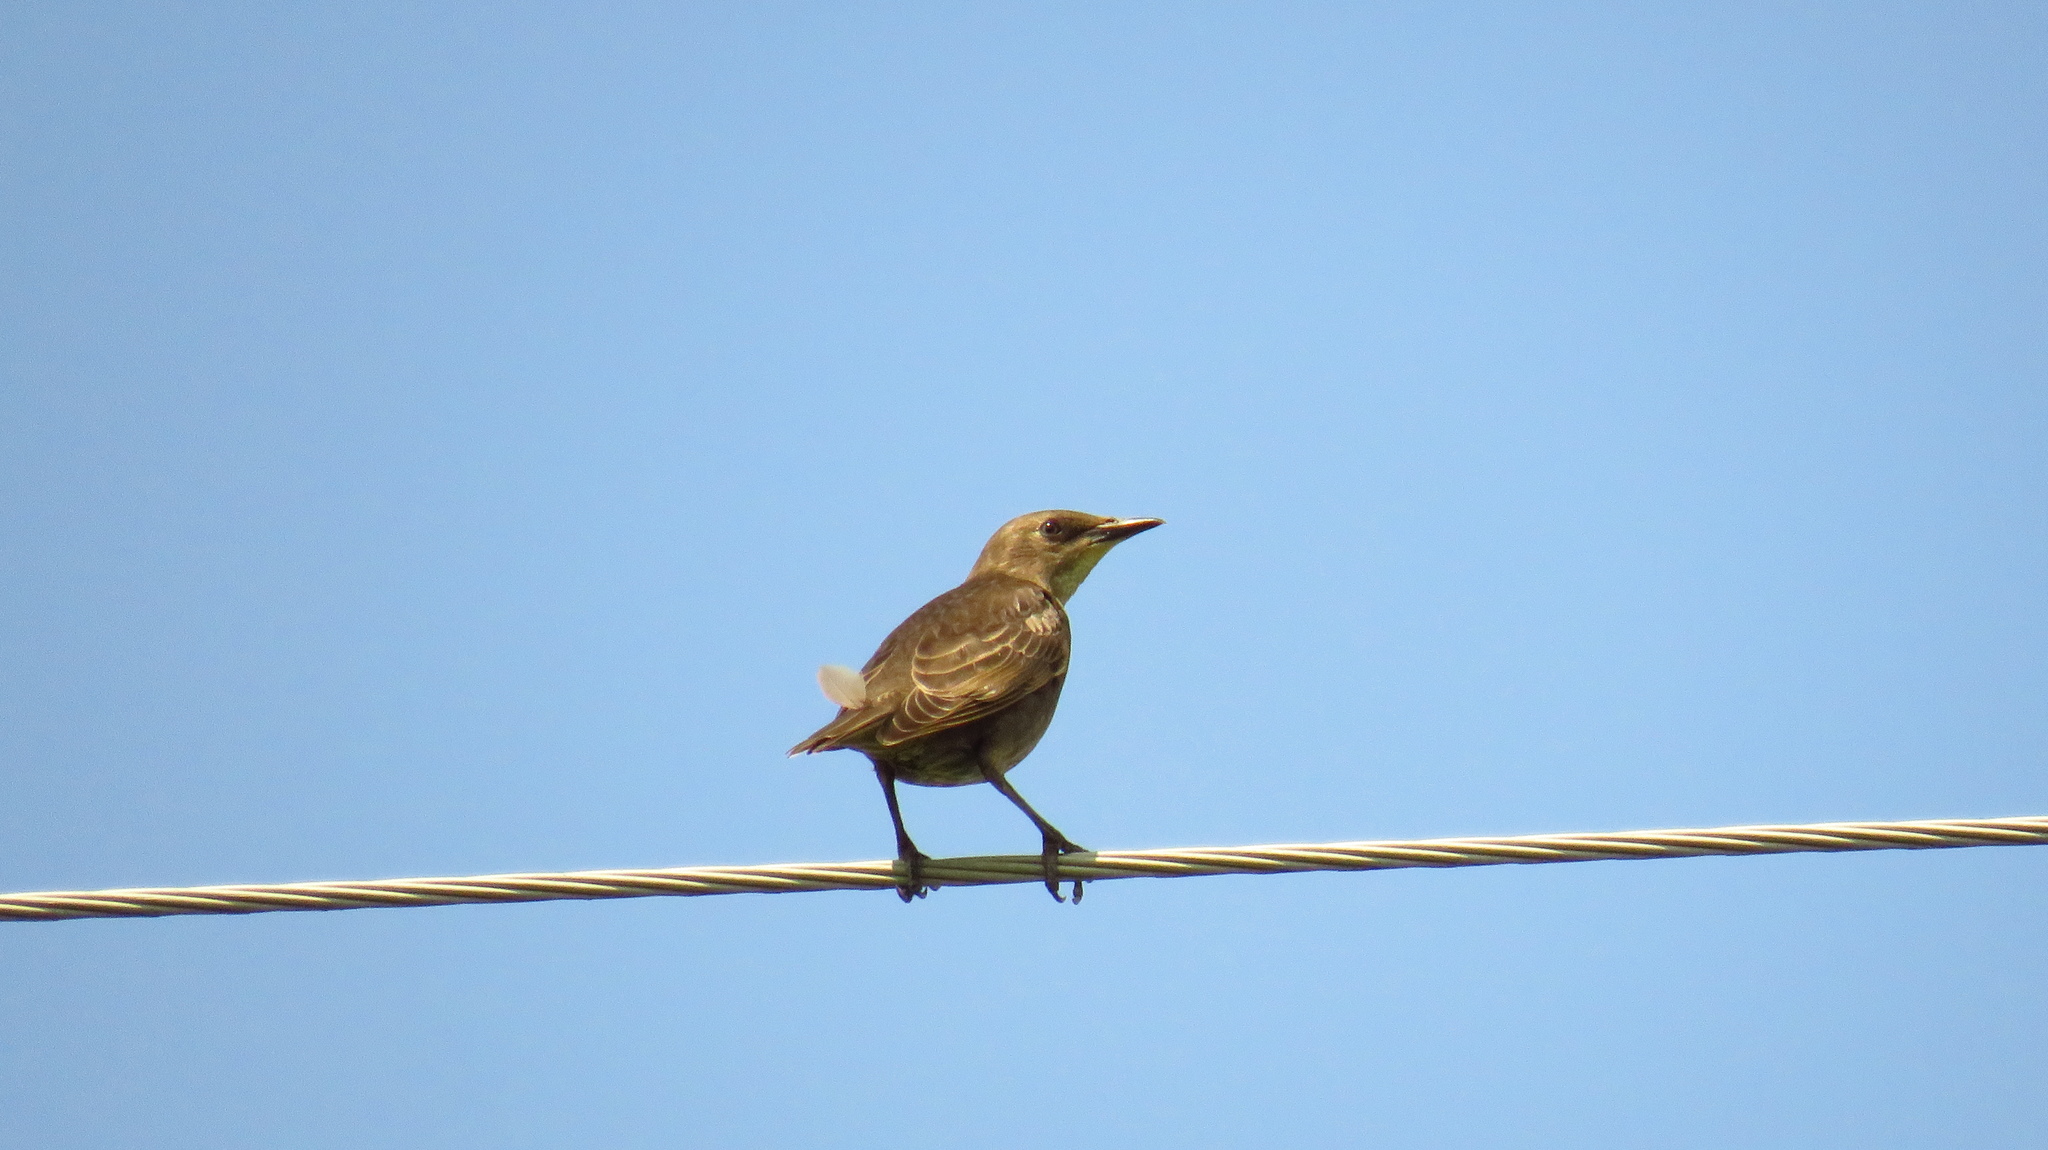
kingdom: Animalia
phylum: Chordata
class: Aves
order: Passeriformes
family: Sturnidae
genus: Sturnus
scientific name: Sturnus vulgaris
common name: Common starling
